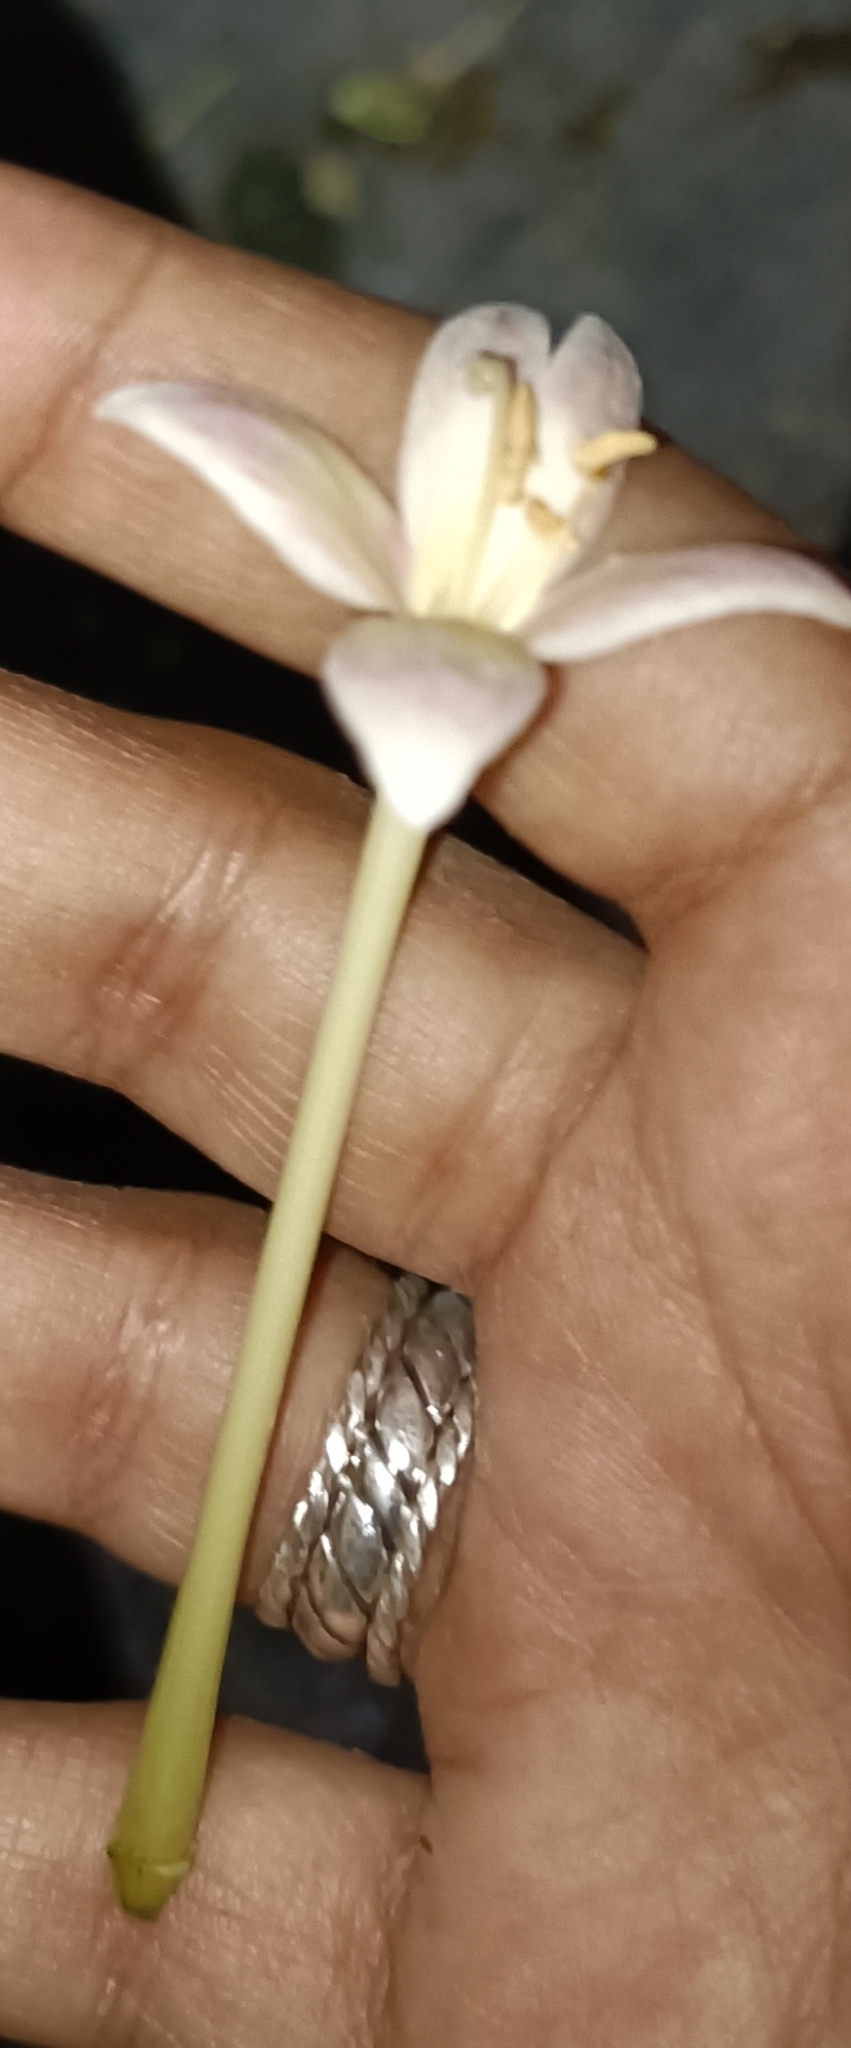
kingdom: Plantae
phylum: Tracheophyta
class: Magnoliopsida
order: Lamiales
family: Bignoniaceae
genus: Millingtonia
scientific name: Millingtonia hortensis
